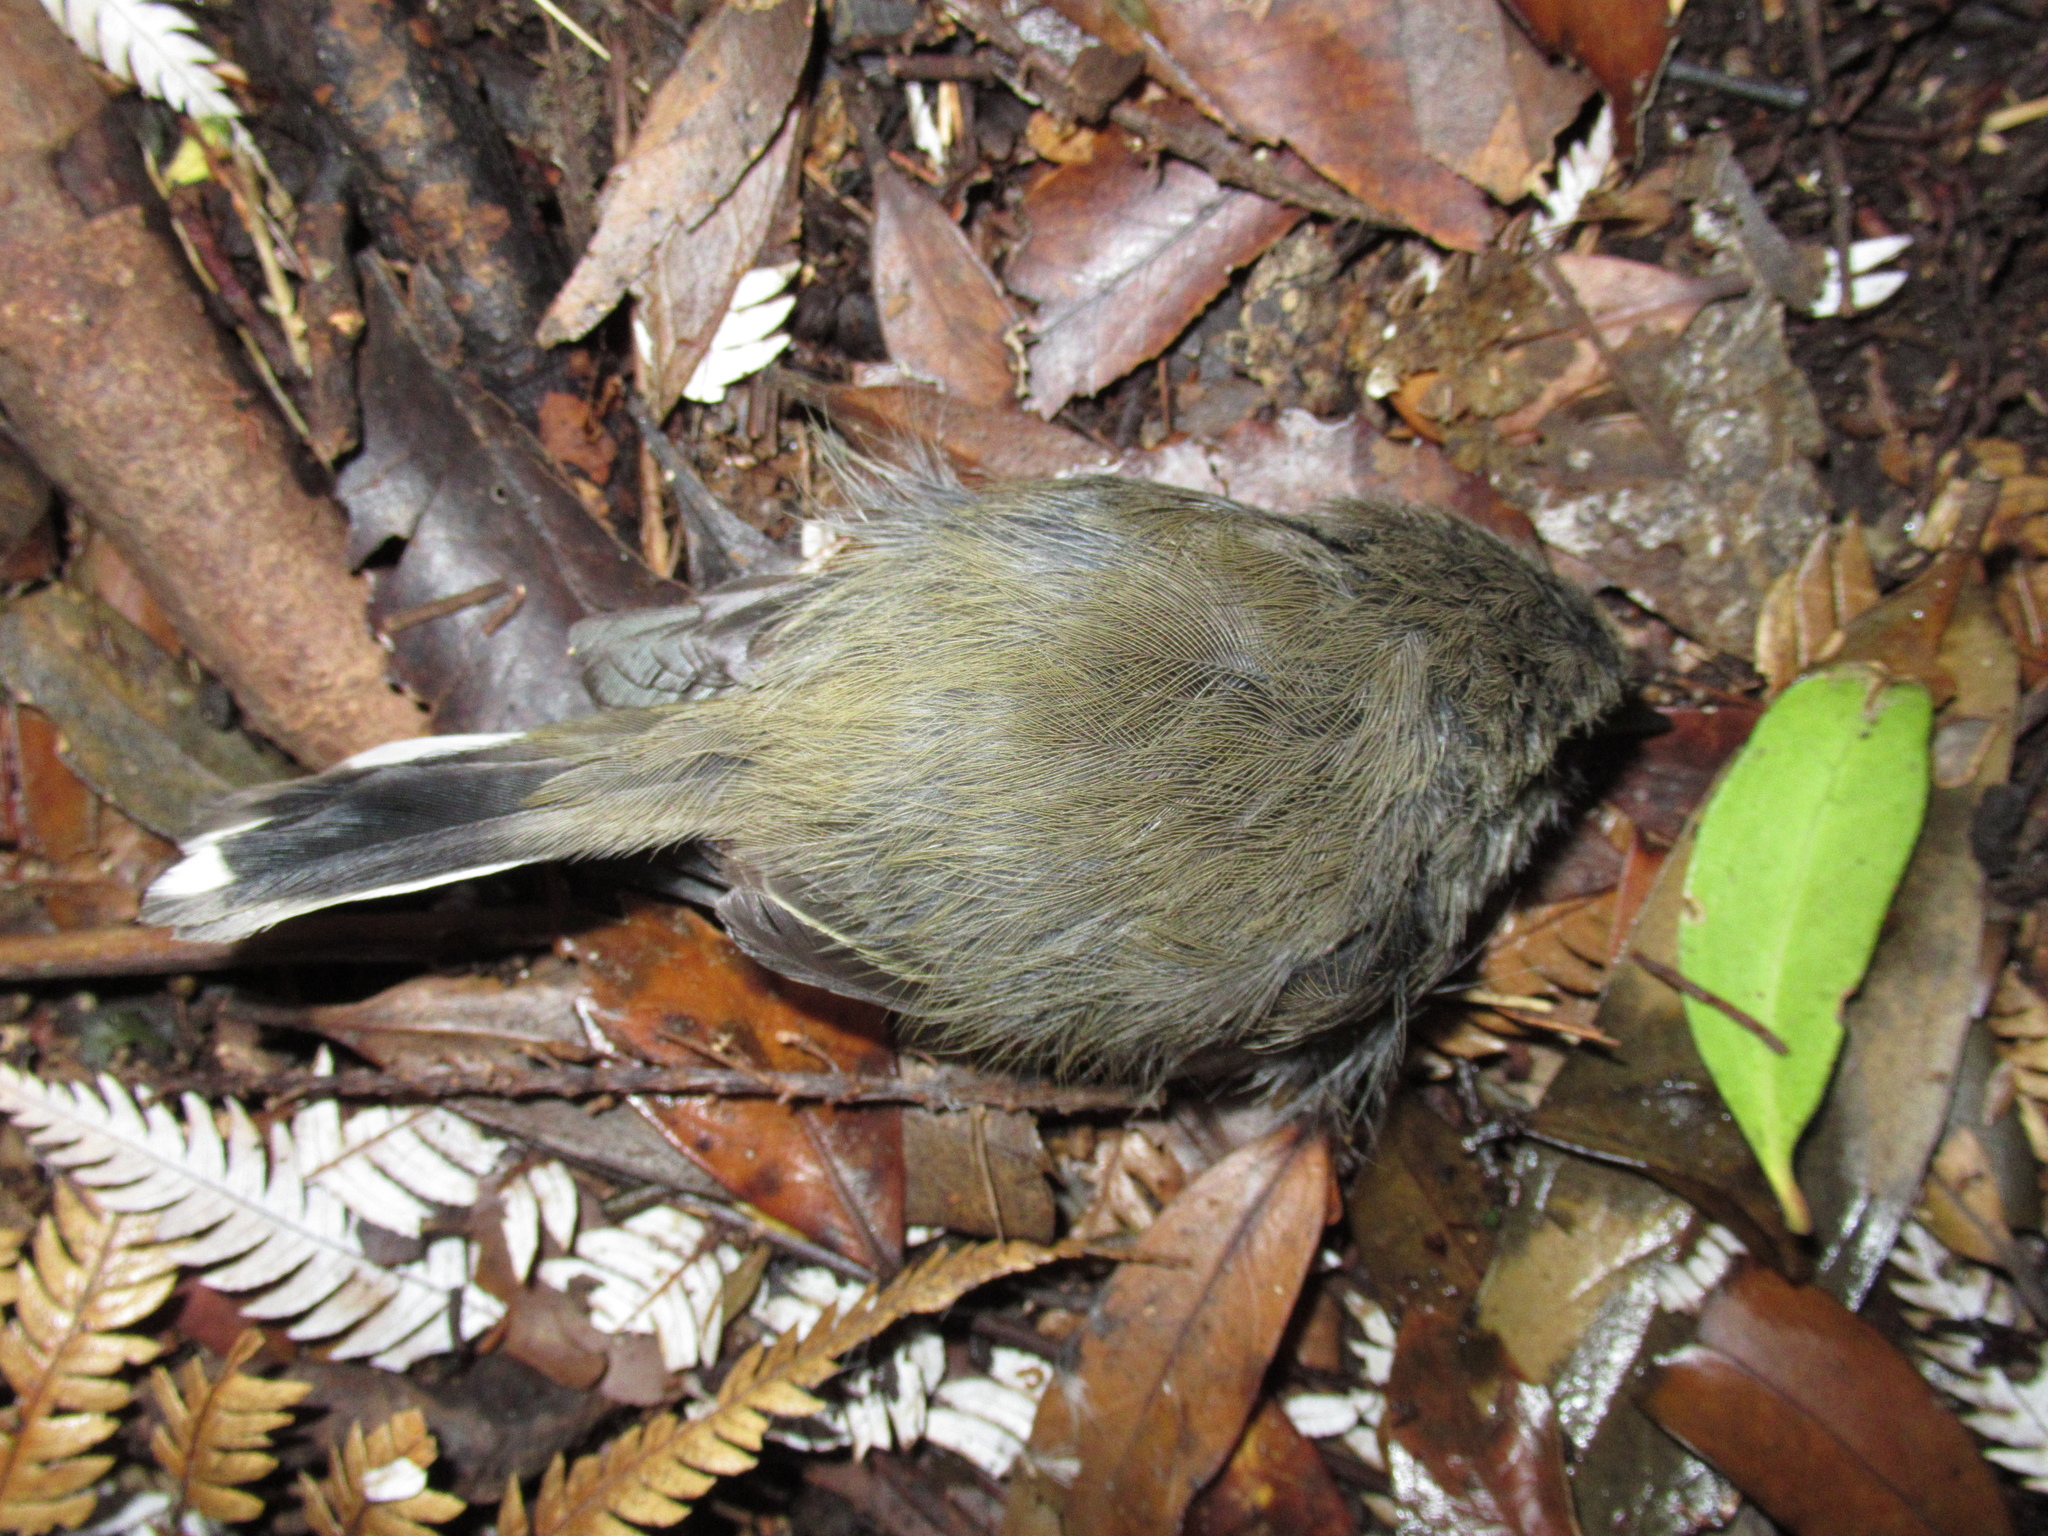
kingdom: Animalia
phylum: Chordata
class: Aves
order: Passeriformes
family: Acanthizidae
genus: Gerygone
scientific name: Gerygone igata
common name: Grey gerygone
